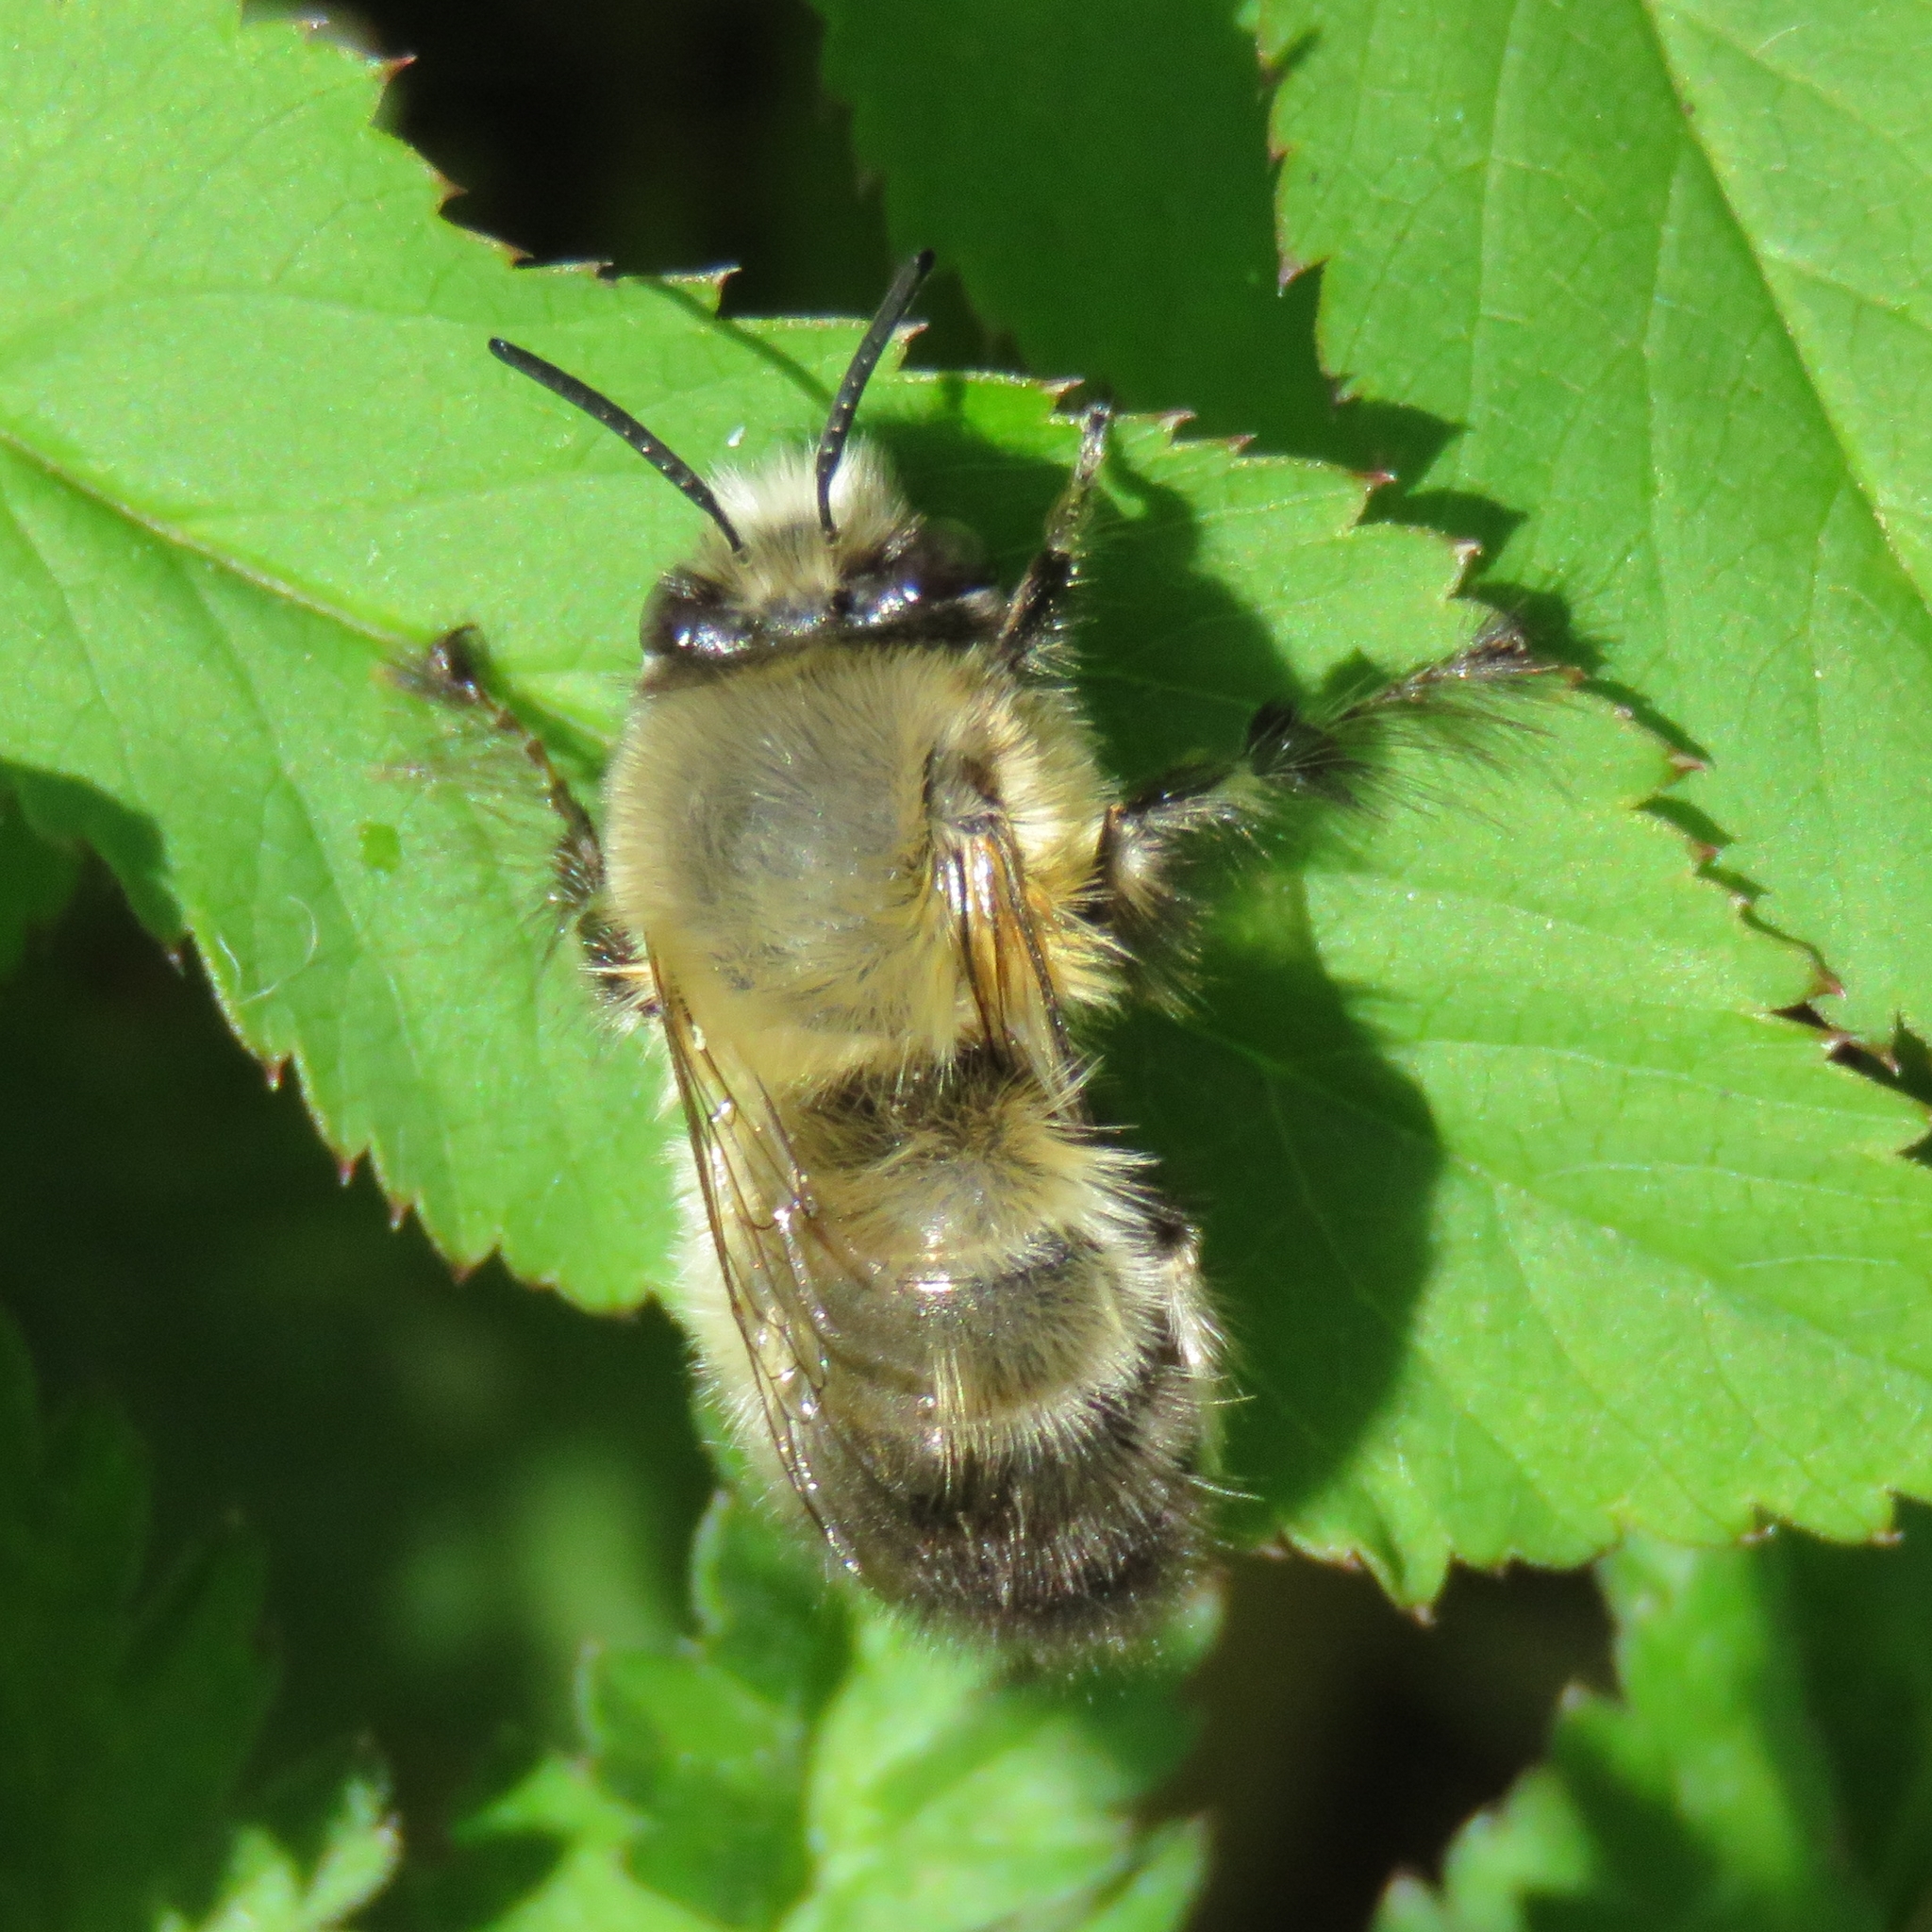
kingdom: Animalia
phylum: Arthropoda
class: Insecta
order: Hymenoptera
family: Apidae
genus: Anthophora
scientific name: Anthophora plumipes
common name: Hairy-footed flower bee
